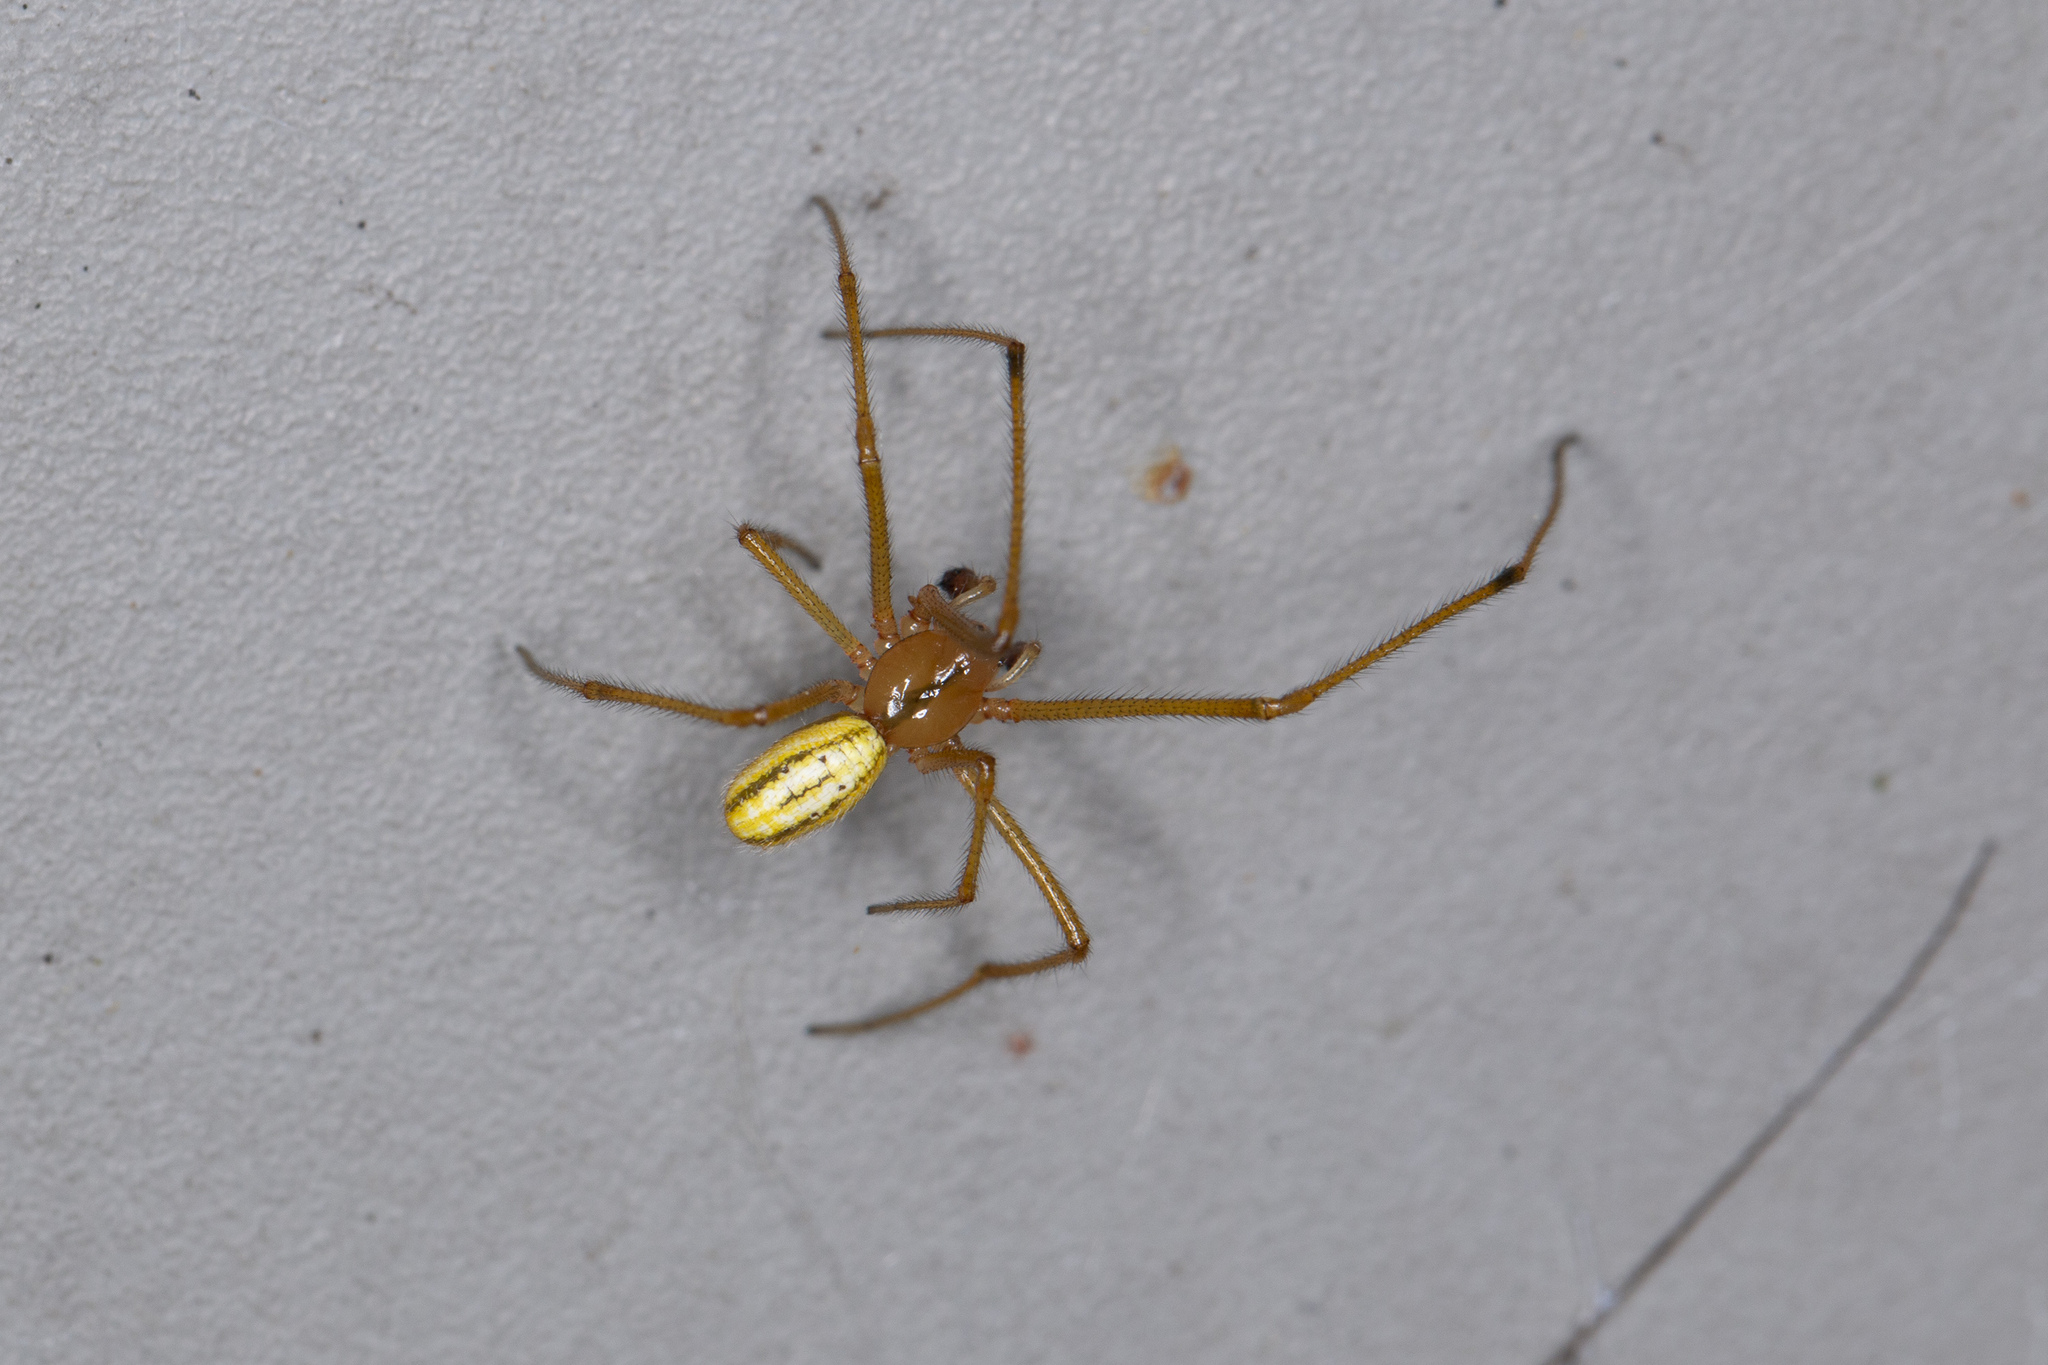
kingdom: Animalia
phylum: Arthropoda
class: Arachnida
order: Araneae
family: Theridiidae
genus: Enoplognatha
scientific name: Enoplognatha ovata
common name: Common candy-striped spider
